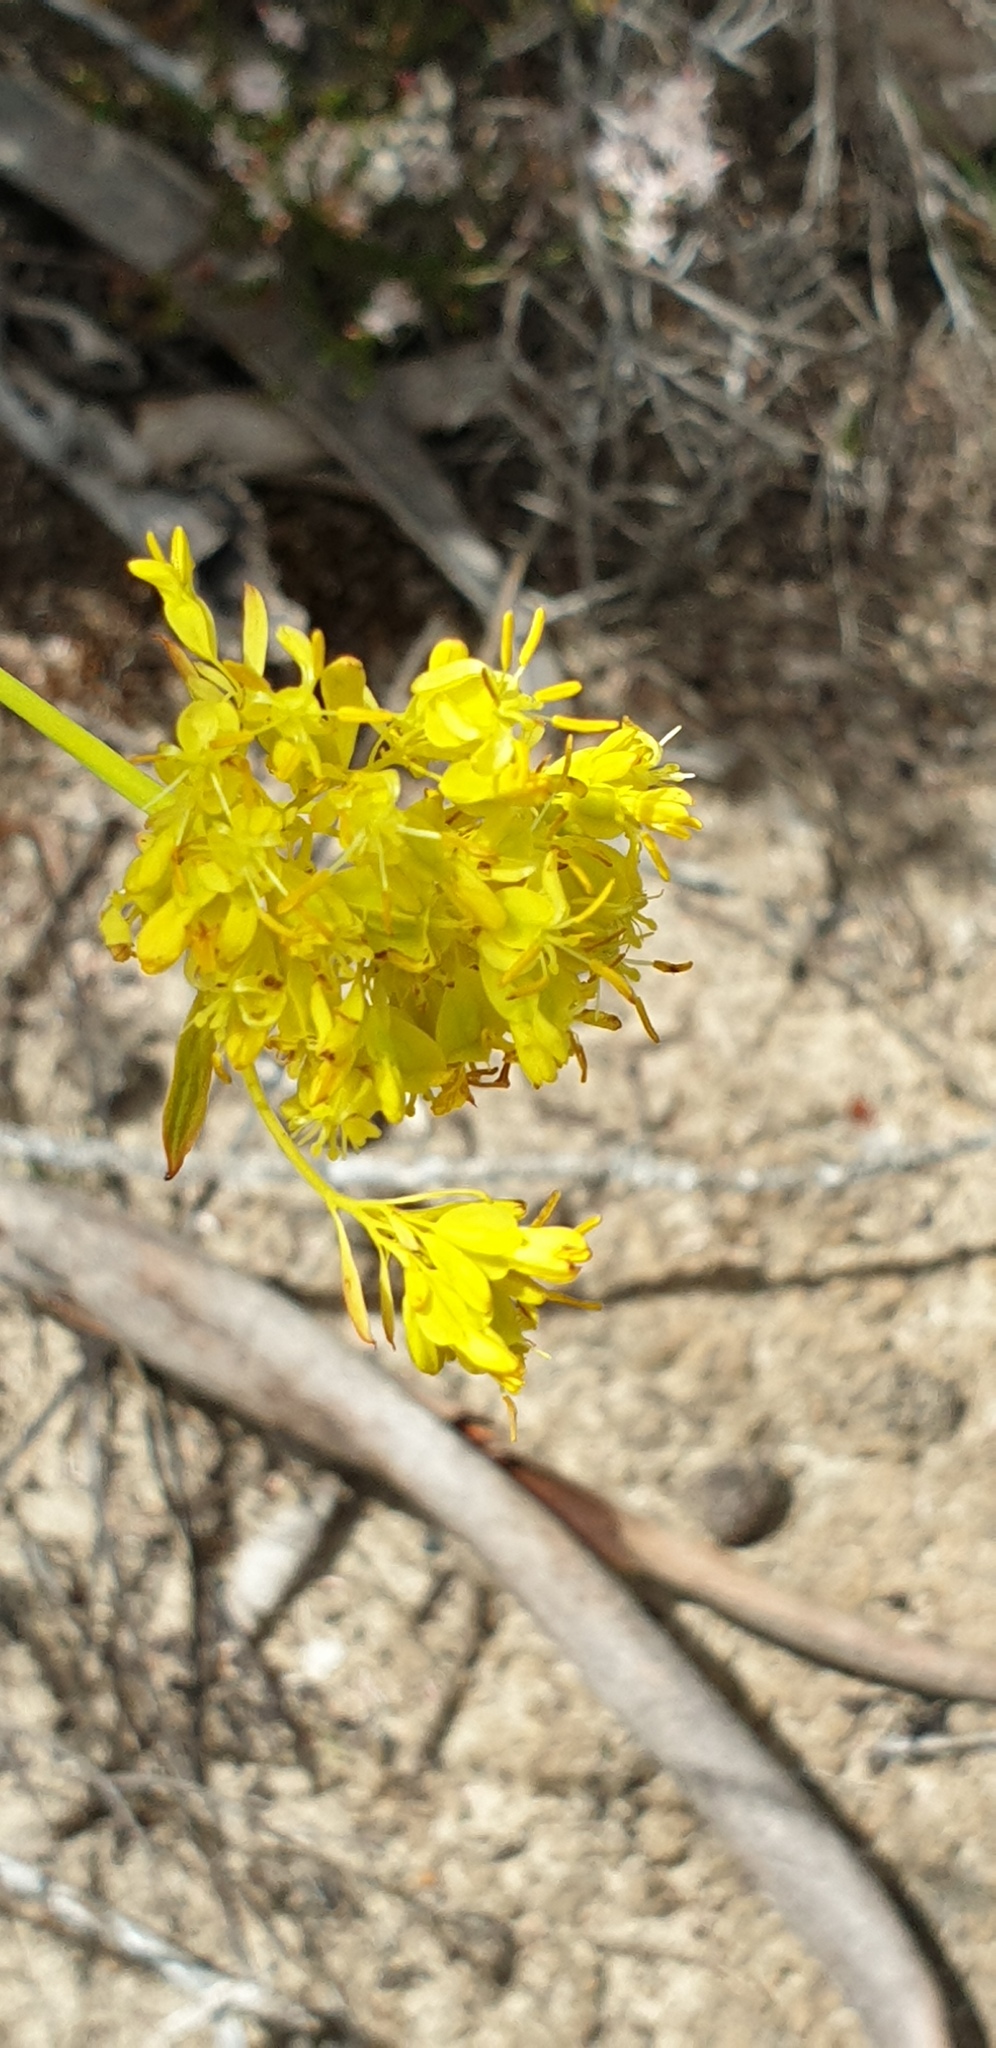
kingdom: Plantae
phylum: Tracheophyta
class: Magnoliopsida
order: Saxifragales
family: Haloragaceae
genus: Glischrocaryon
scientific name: Glischrocaryon behrii
